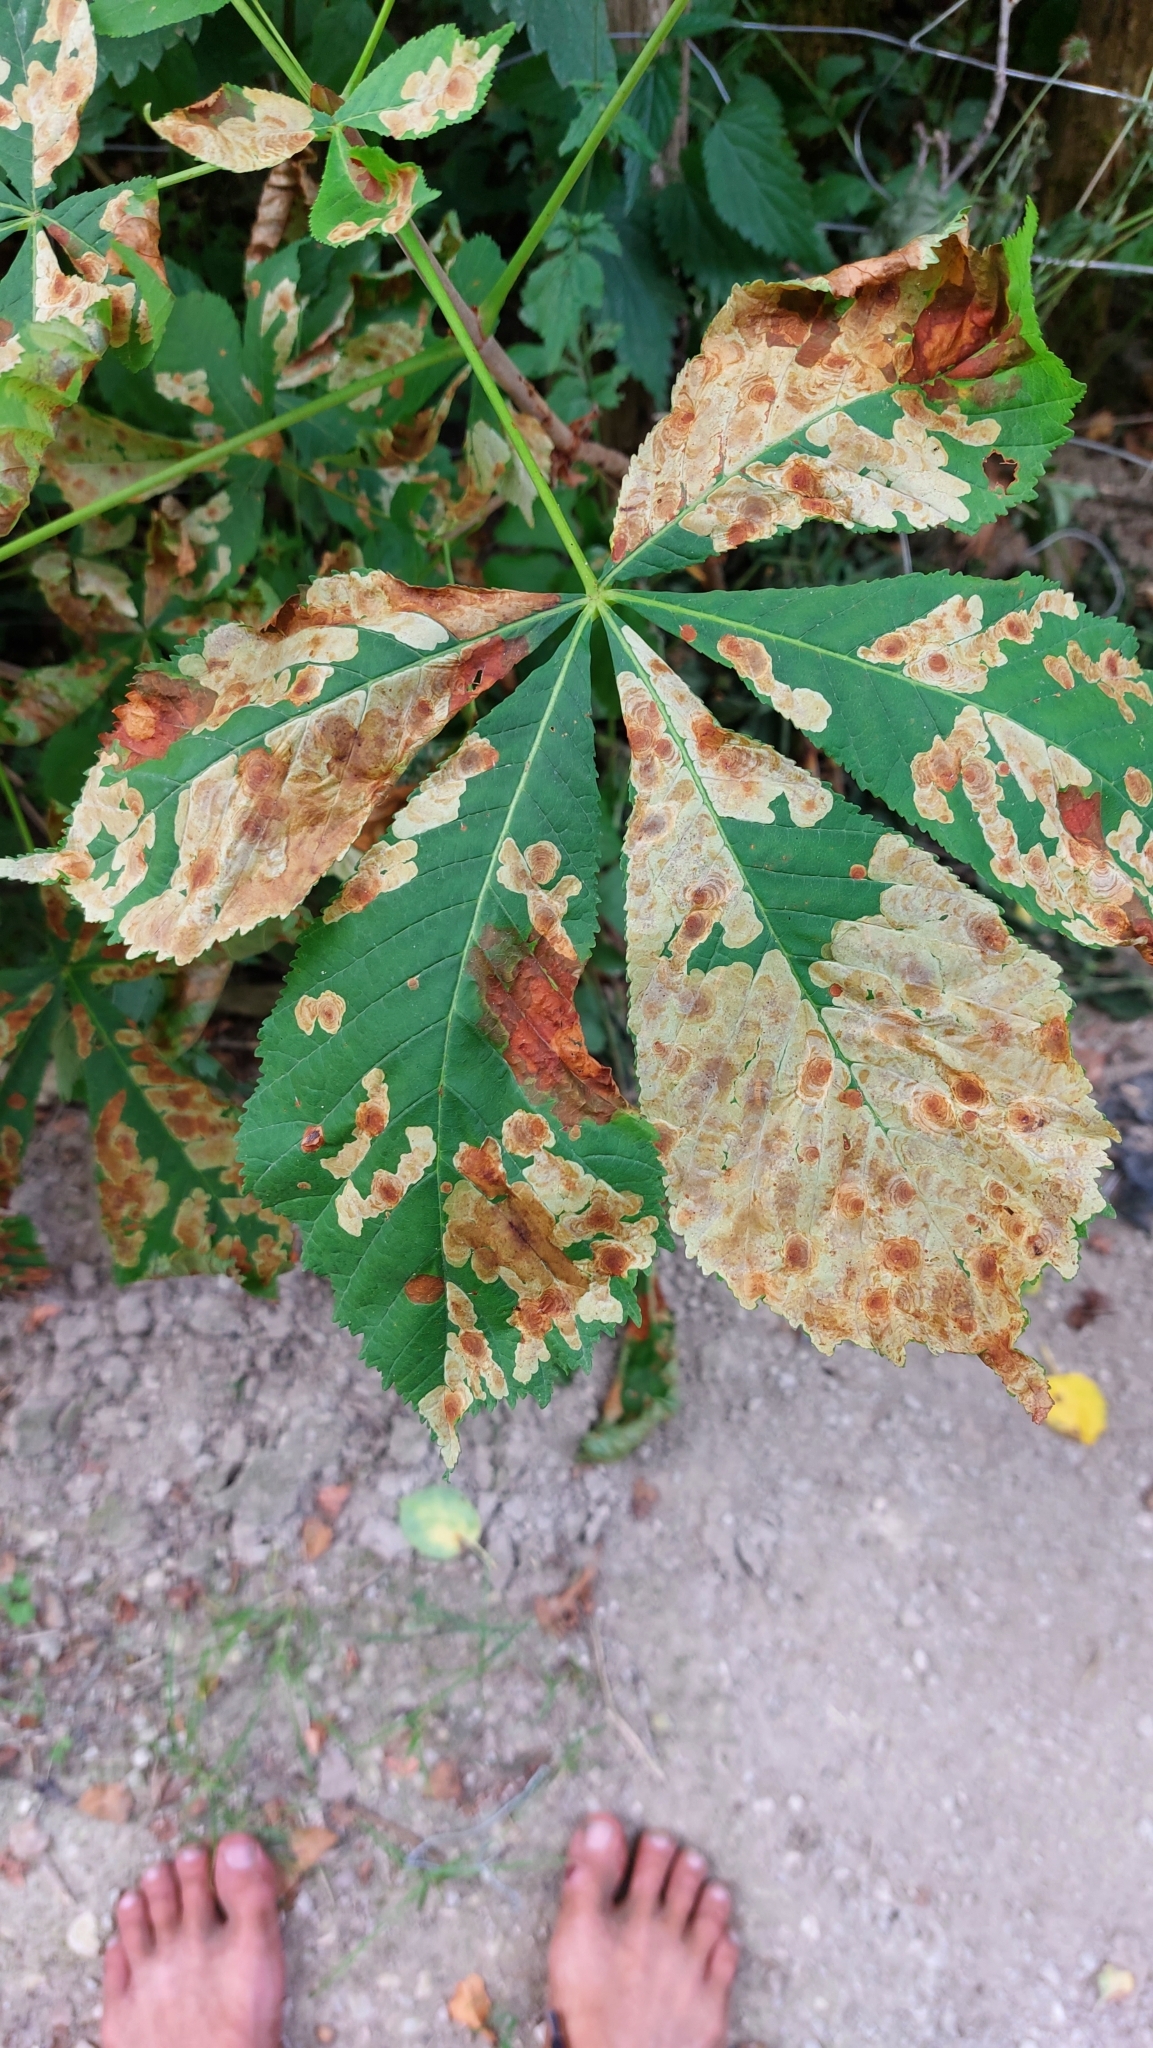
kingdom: Animalia
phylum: Arthropoda
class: Insecta
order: Lepidoptera
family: Gracillariidae
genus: Cameraria
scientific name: Cameraria ohridella
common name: Horse-chestnut leaf-miner
